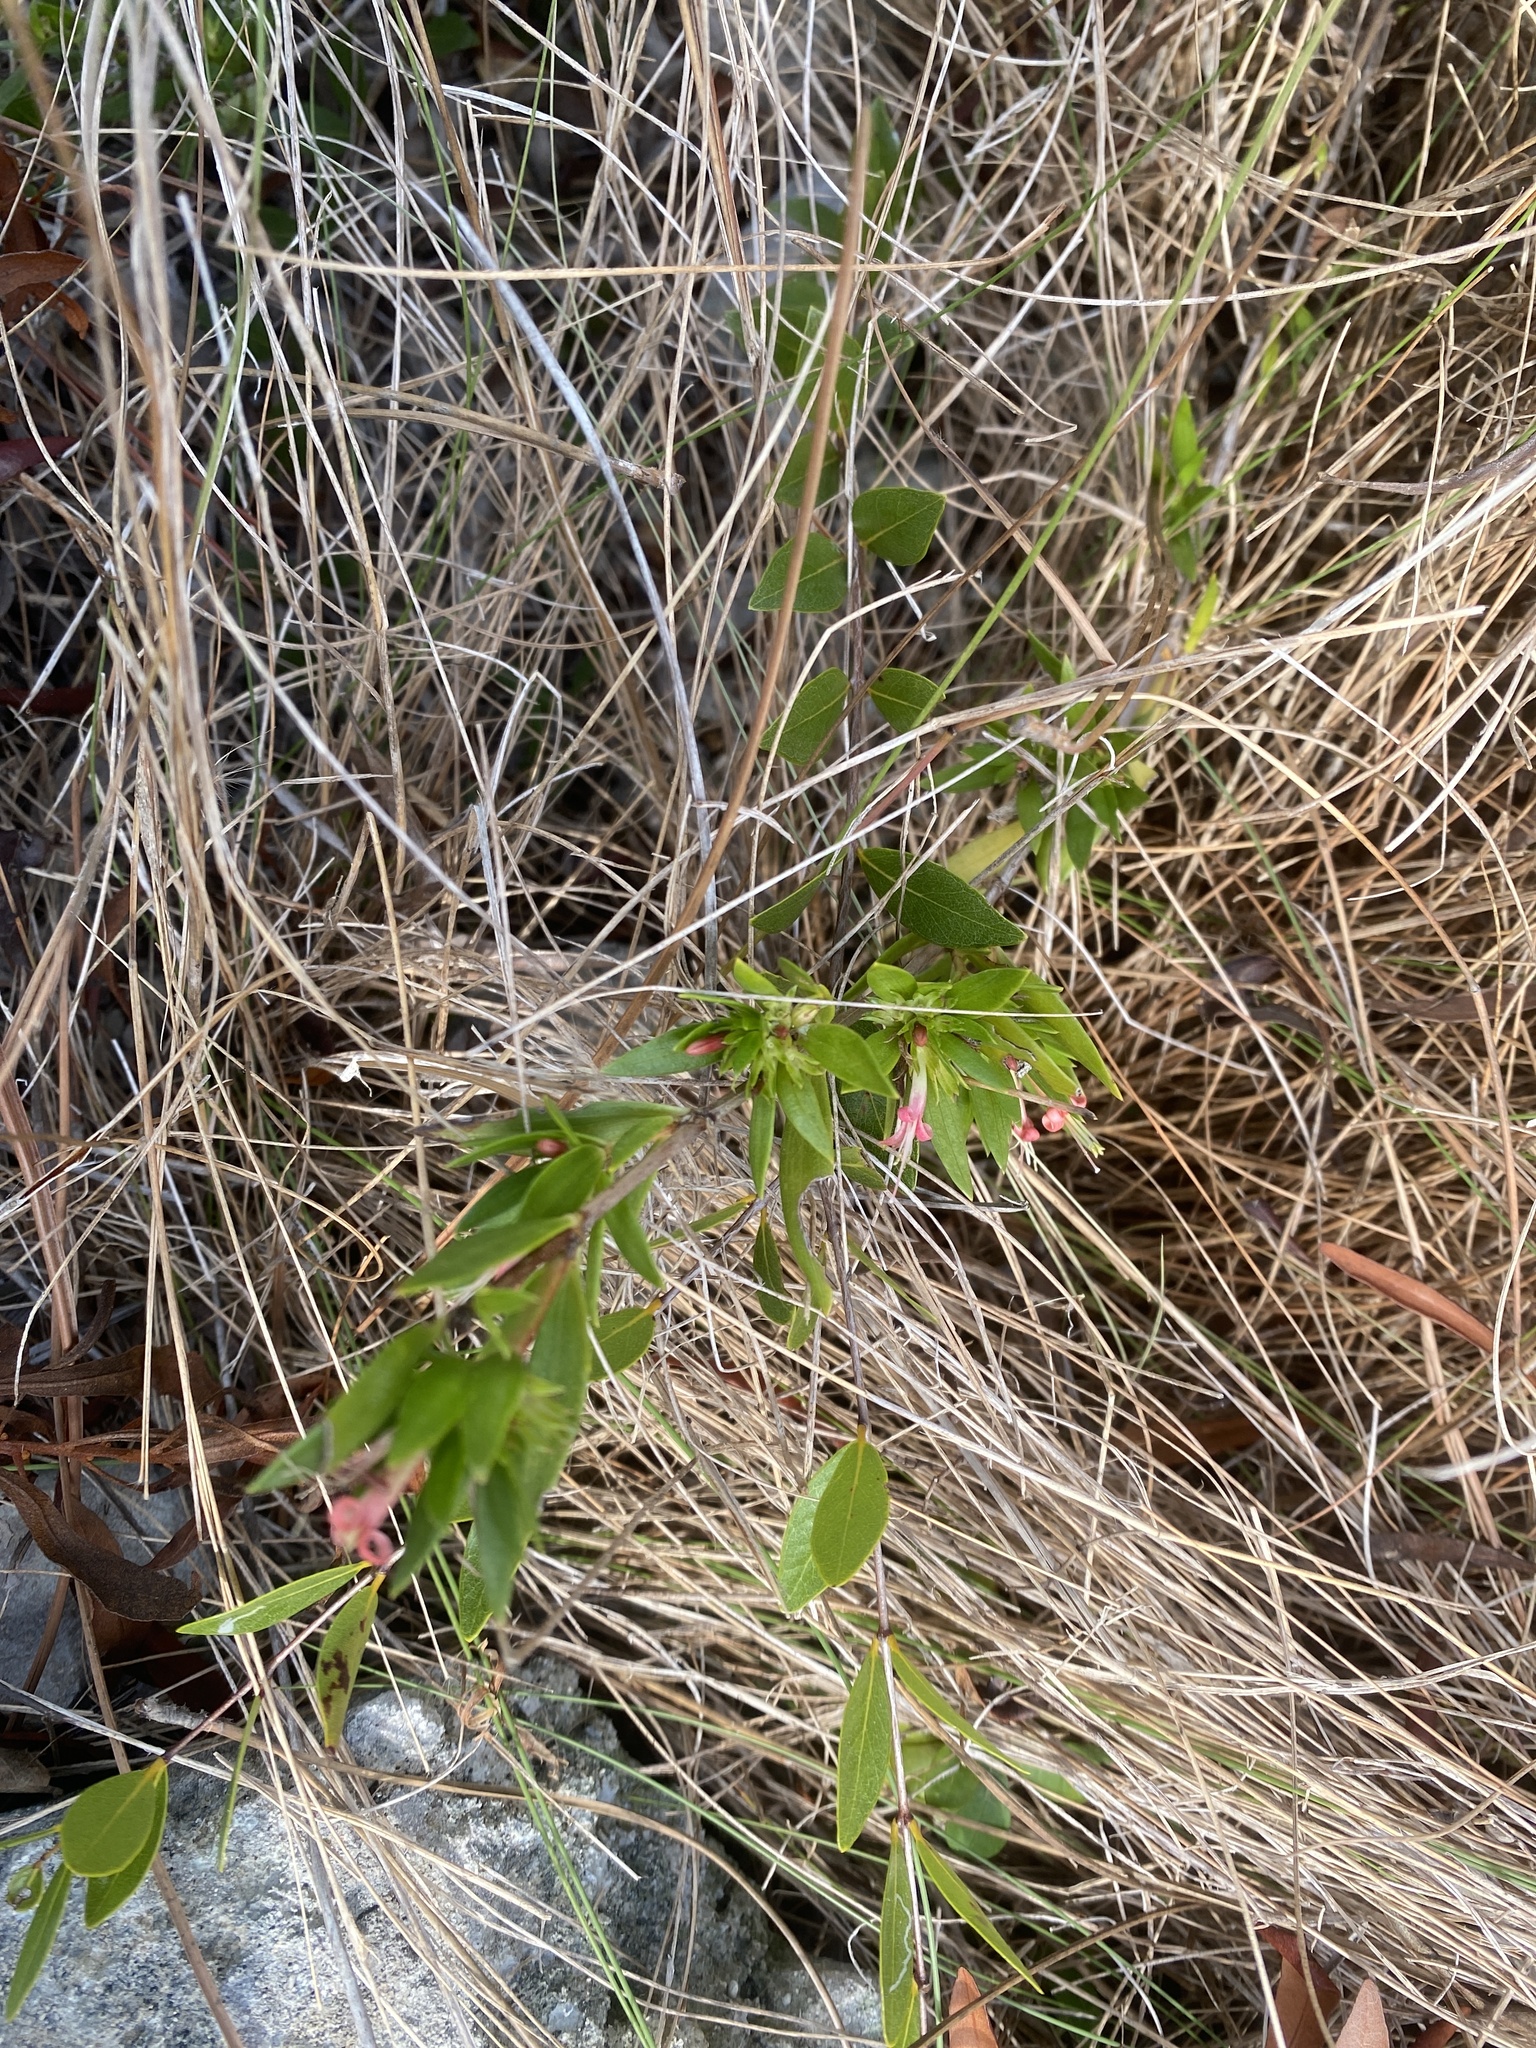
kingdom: Plantae
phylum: Tracheophyta
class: Magnoliopsida
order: Gentianales
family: Rubiaceae
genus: Ernodea
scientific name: Ernodea littoralis
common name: Beach creeper
